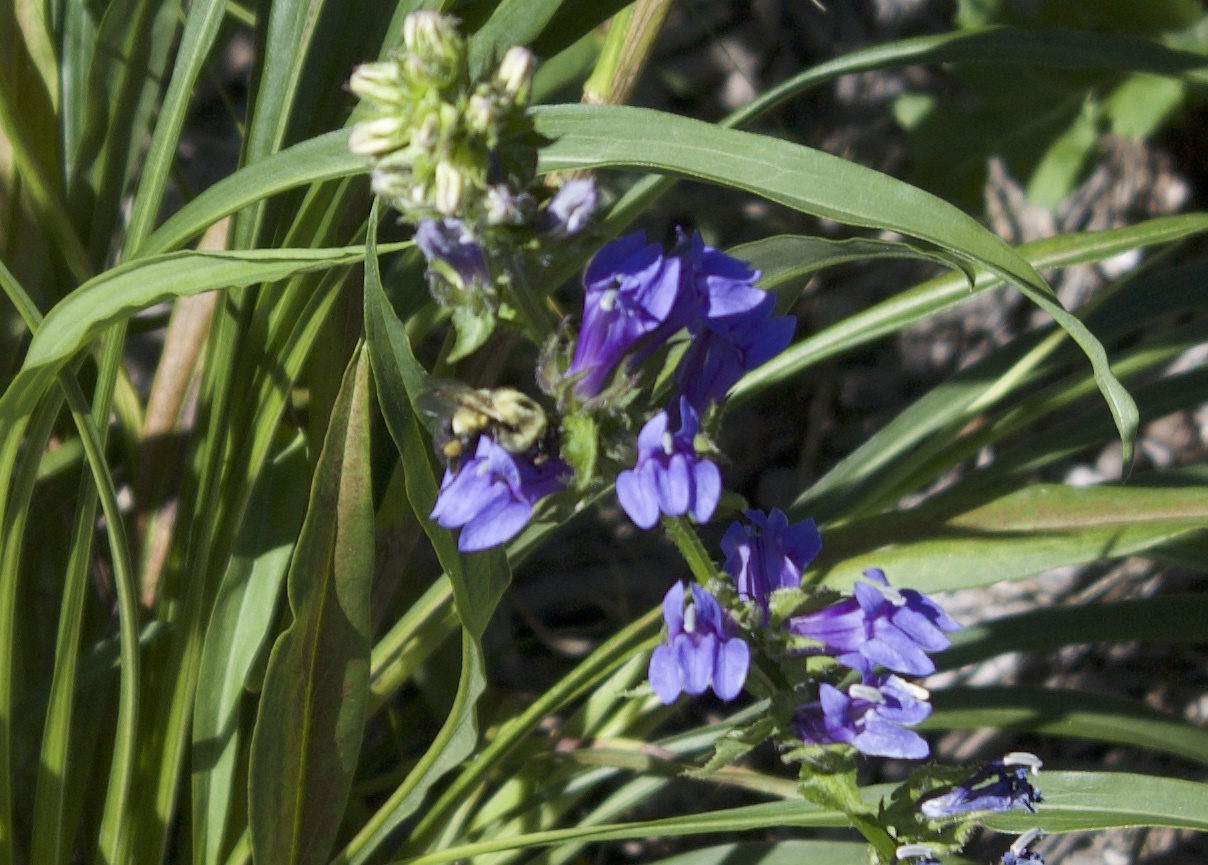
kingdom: Animalia
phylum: Arthropoda
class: Insecta
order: Hymenoptera
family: Apidae
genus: Bombus
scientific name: Bombus impatiens
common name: Common eastern bumble bee
